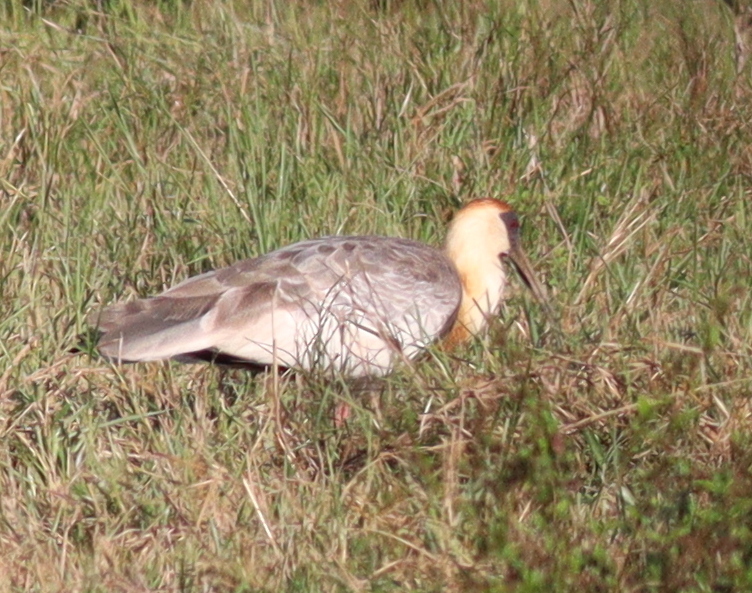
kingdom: Animalia
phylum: Chordata
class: Aves
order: Pelecaniformes
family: Threskiornithidae
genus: Theristicus
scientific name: Theristicus caudatus
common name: Buff-necked ibis
